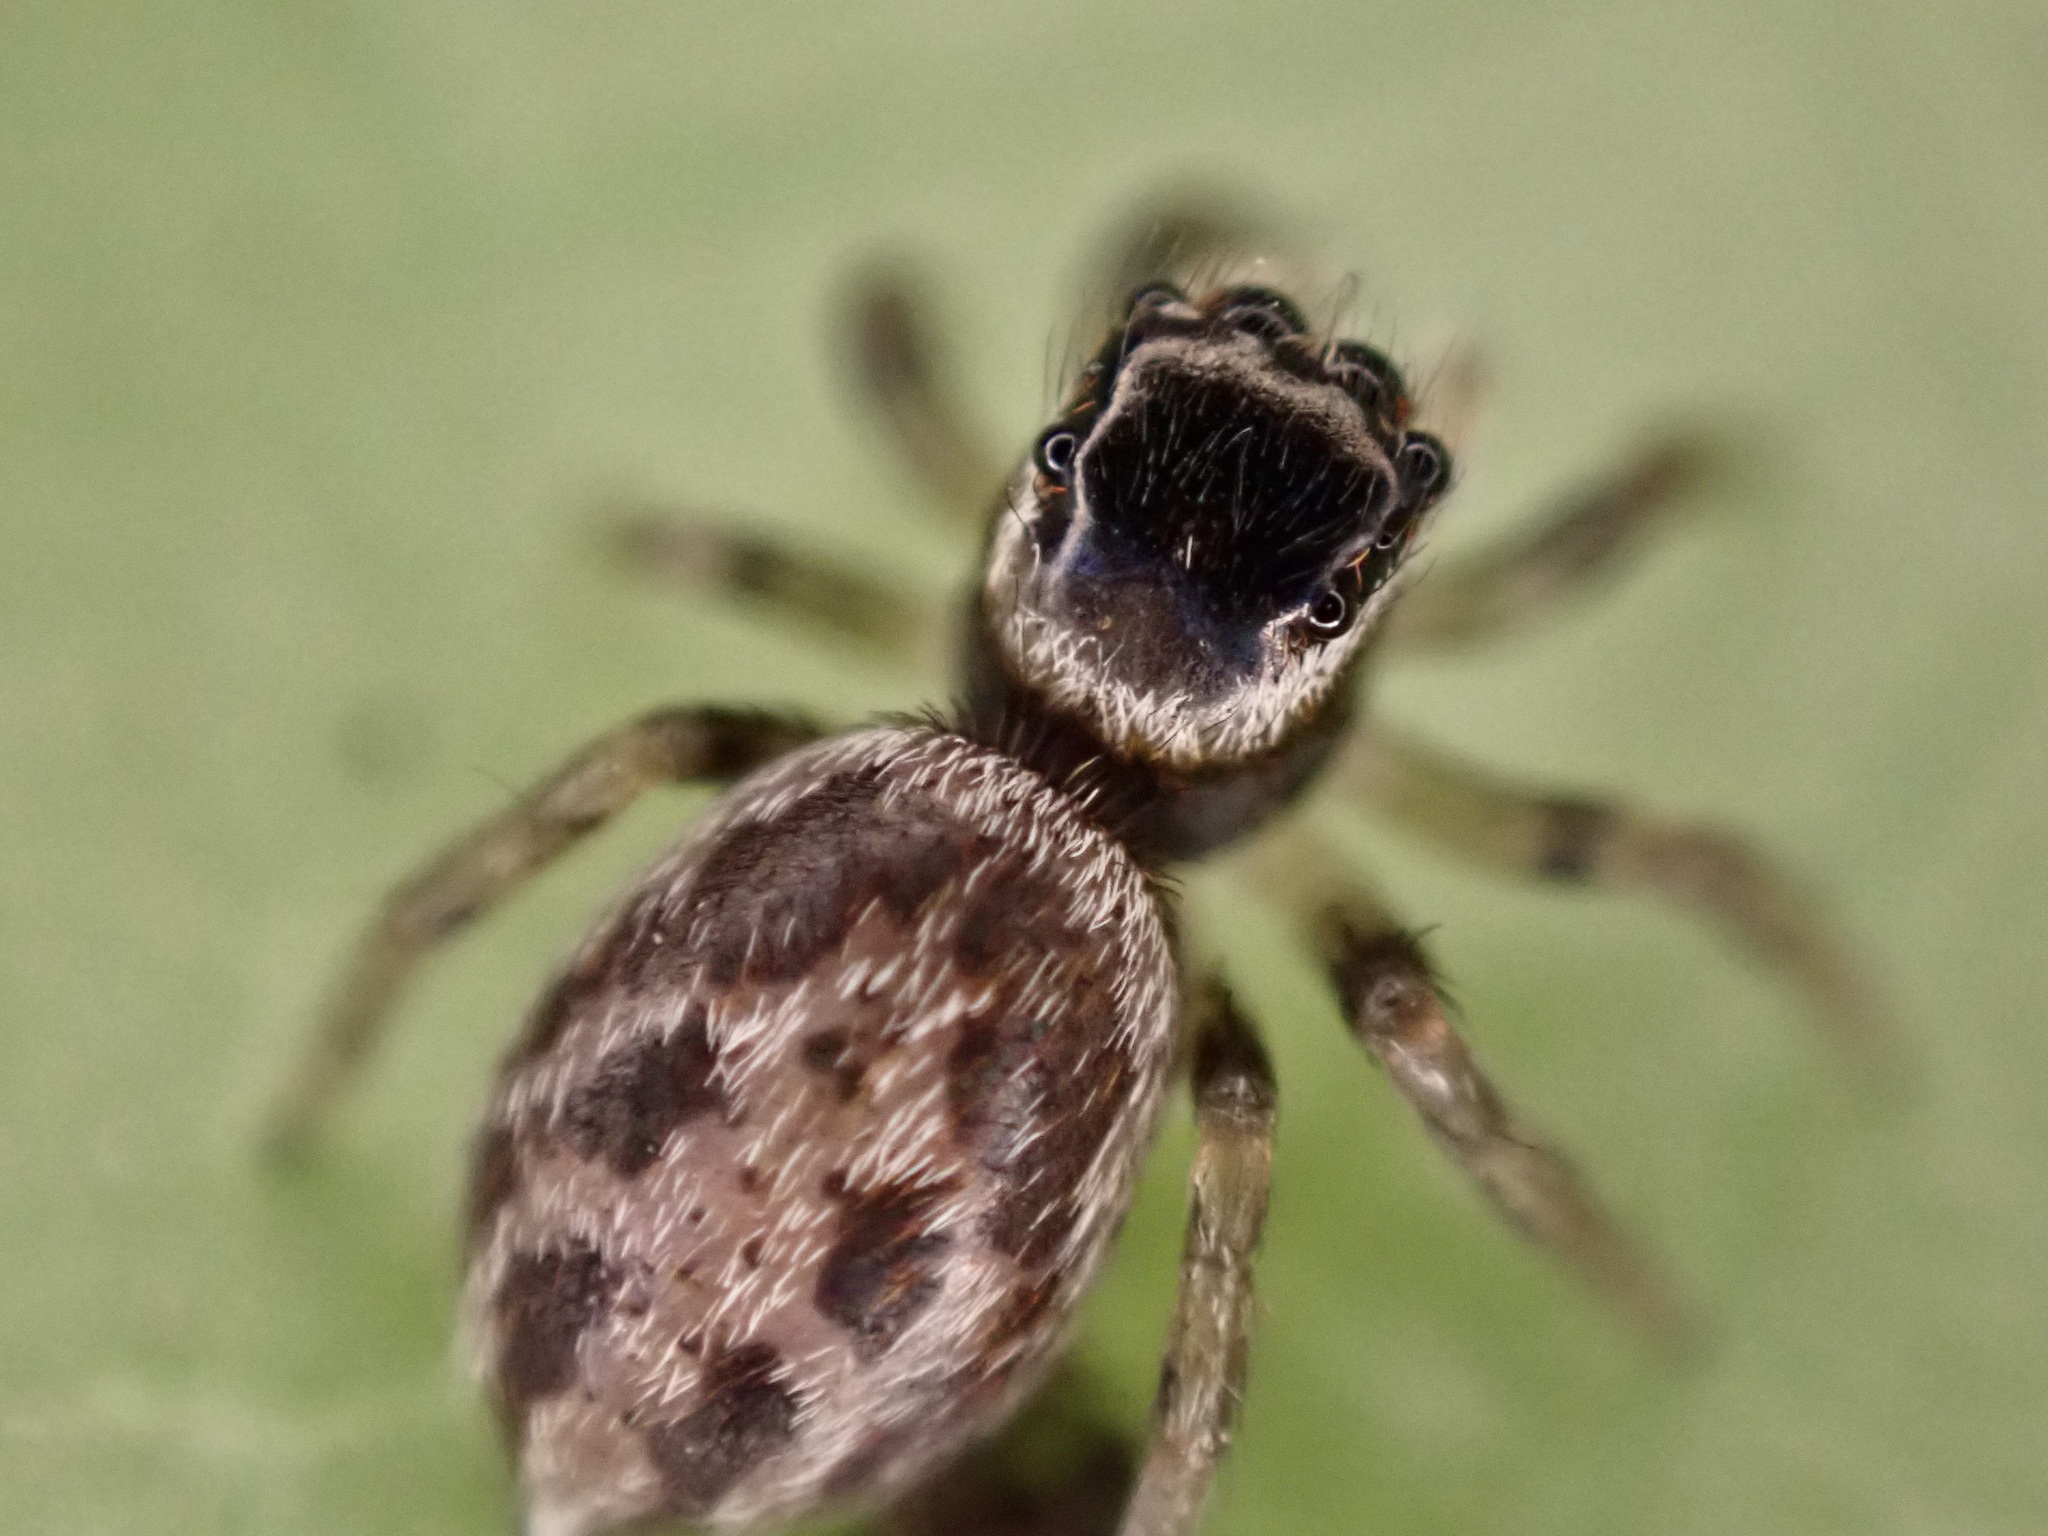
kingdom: Animalia
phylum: Arthropoda
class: Arachnida
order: Araneae
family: Salticidae
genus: Maratus
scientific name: Maratus griseus
